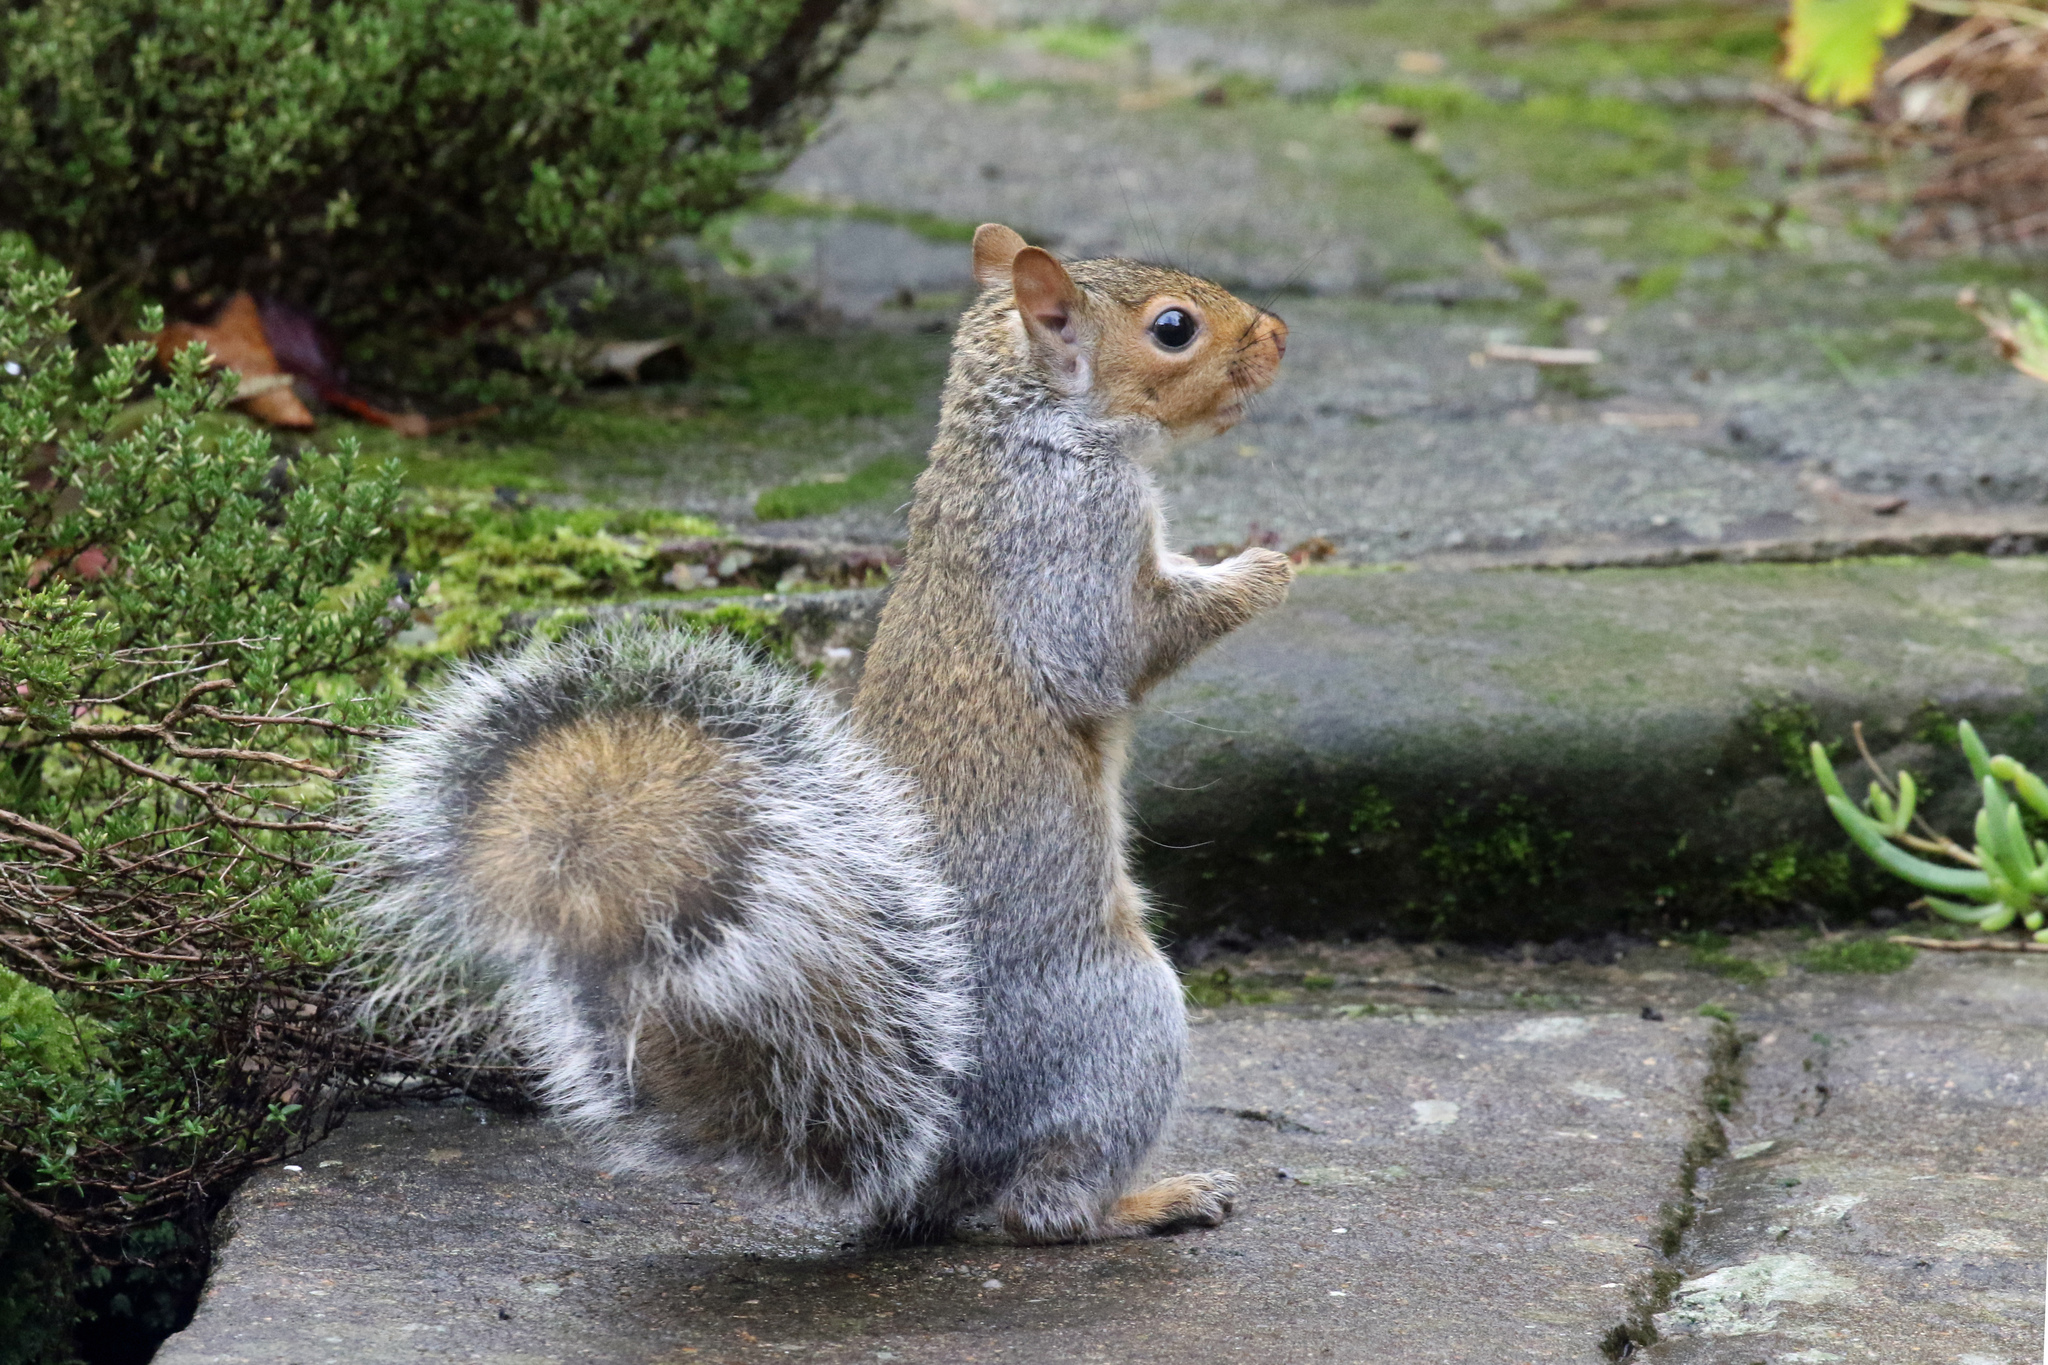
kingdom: Animalia
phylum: Chordata
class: Mammalia
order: Rodentia
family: Sciuridae
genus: Sciurus
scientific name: Sciurus carolinensis
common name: Eastern gray squirrel
